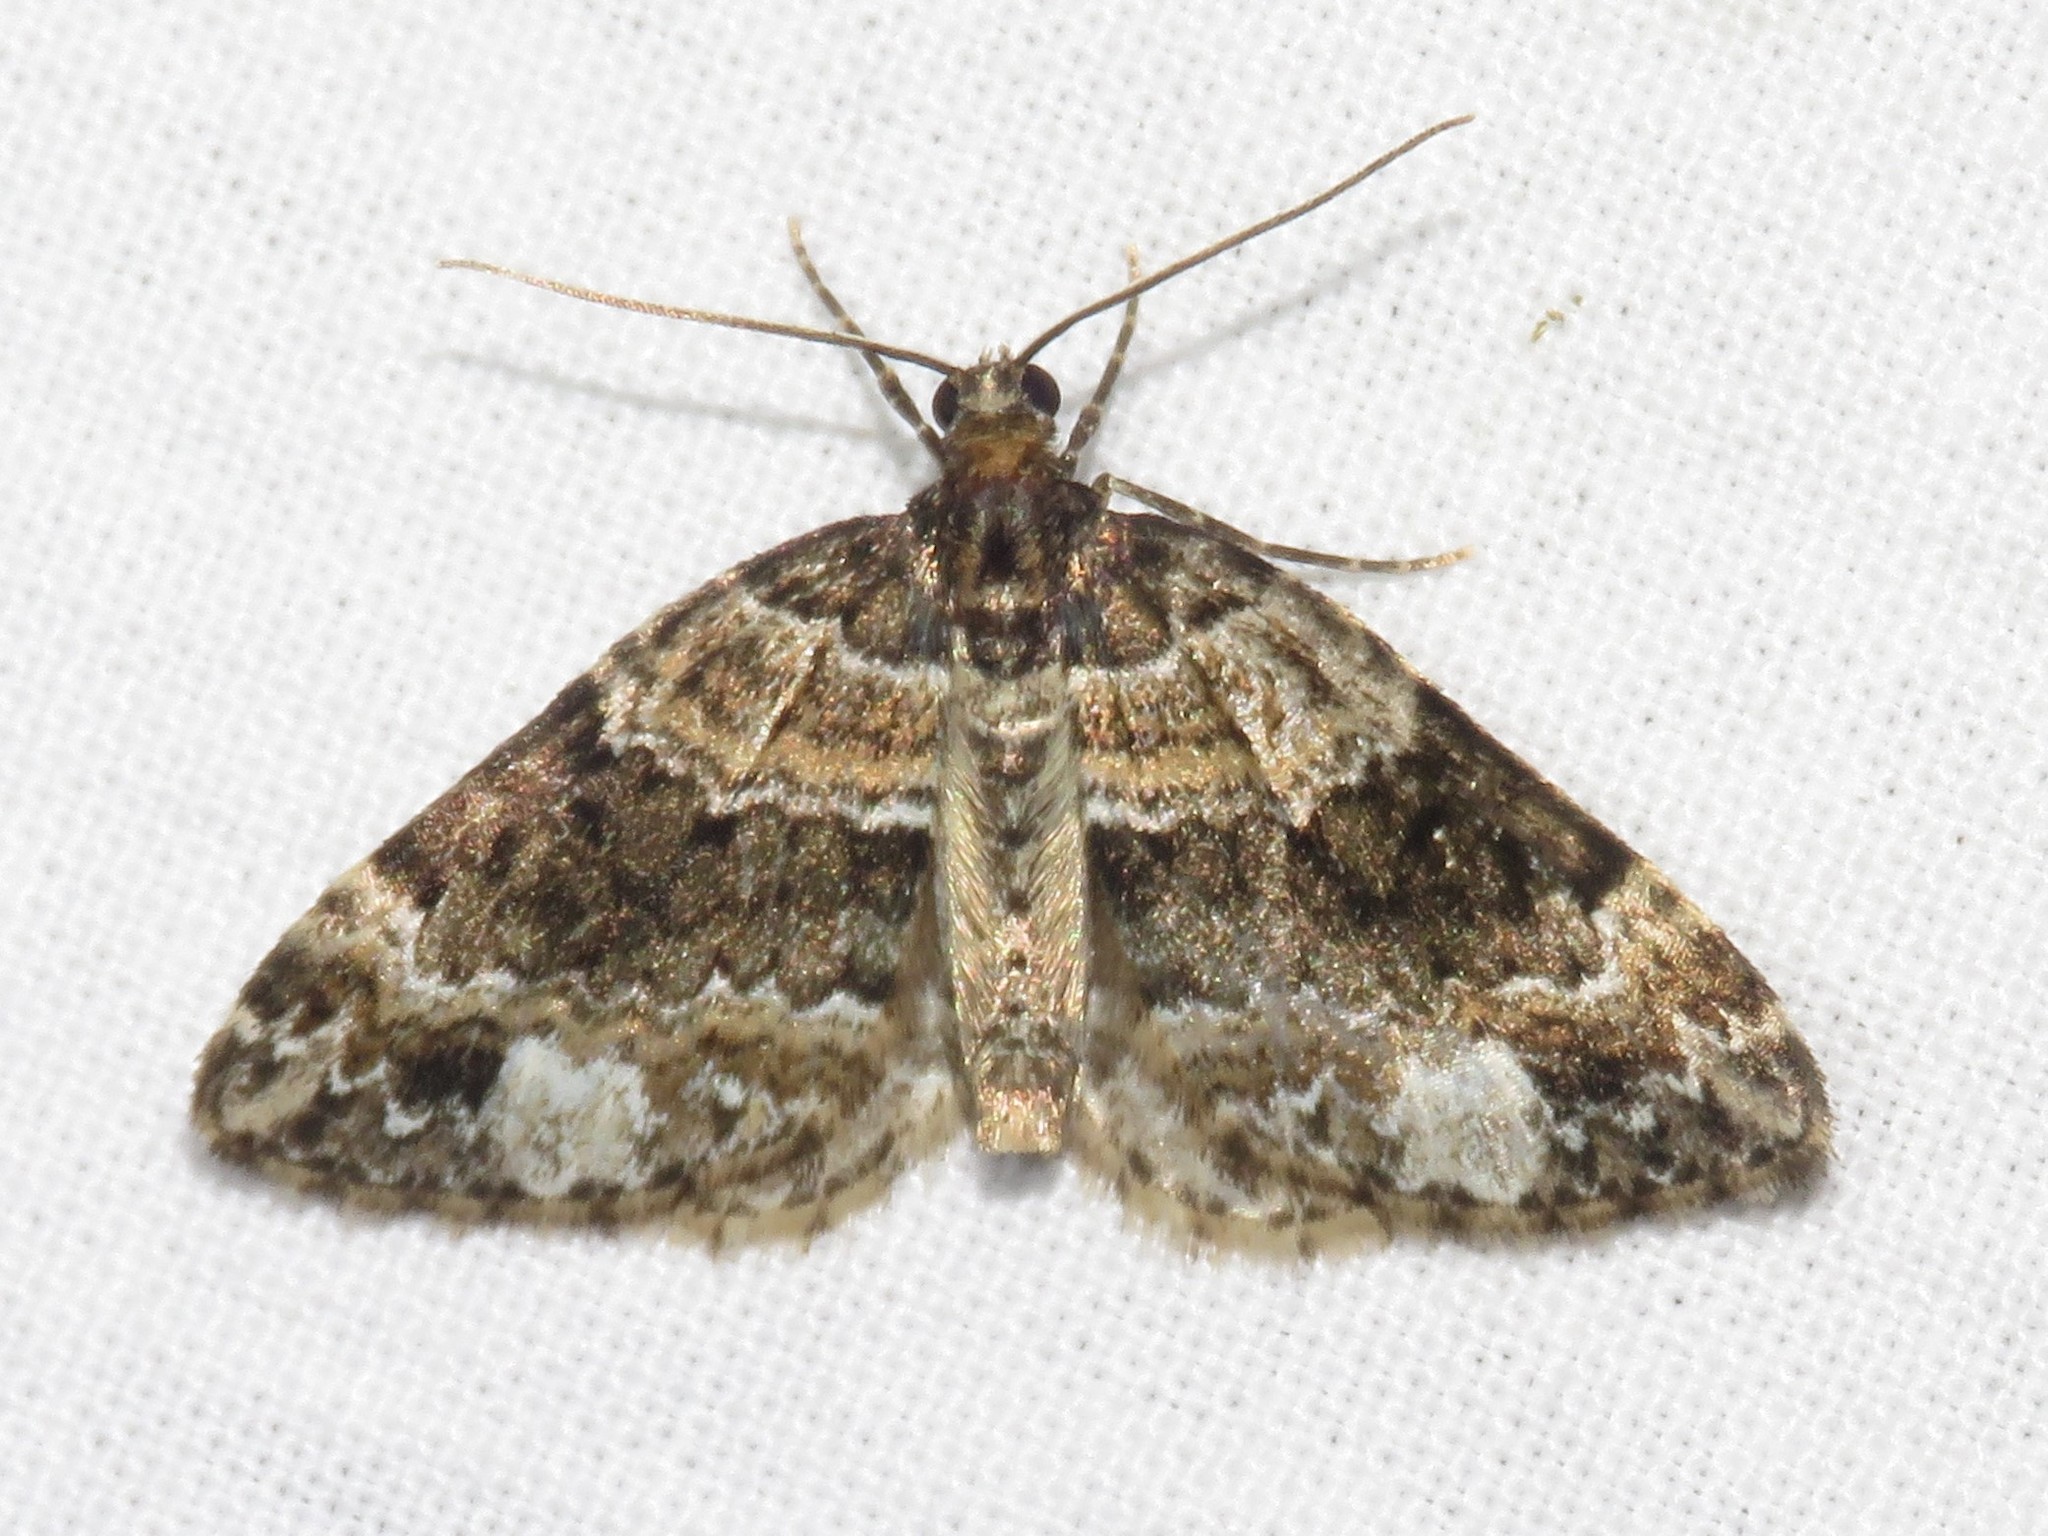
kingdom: Animalia
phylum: Arthropoda
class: Insecta
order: Lepidoptera
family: Geometridae
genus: Martania
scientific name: Martania
